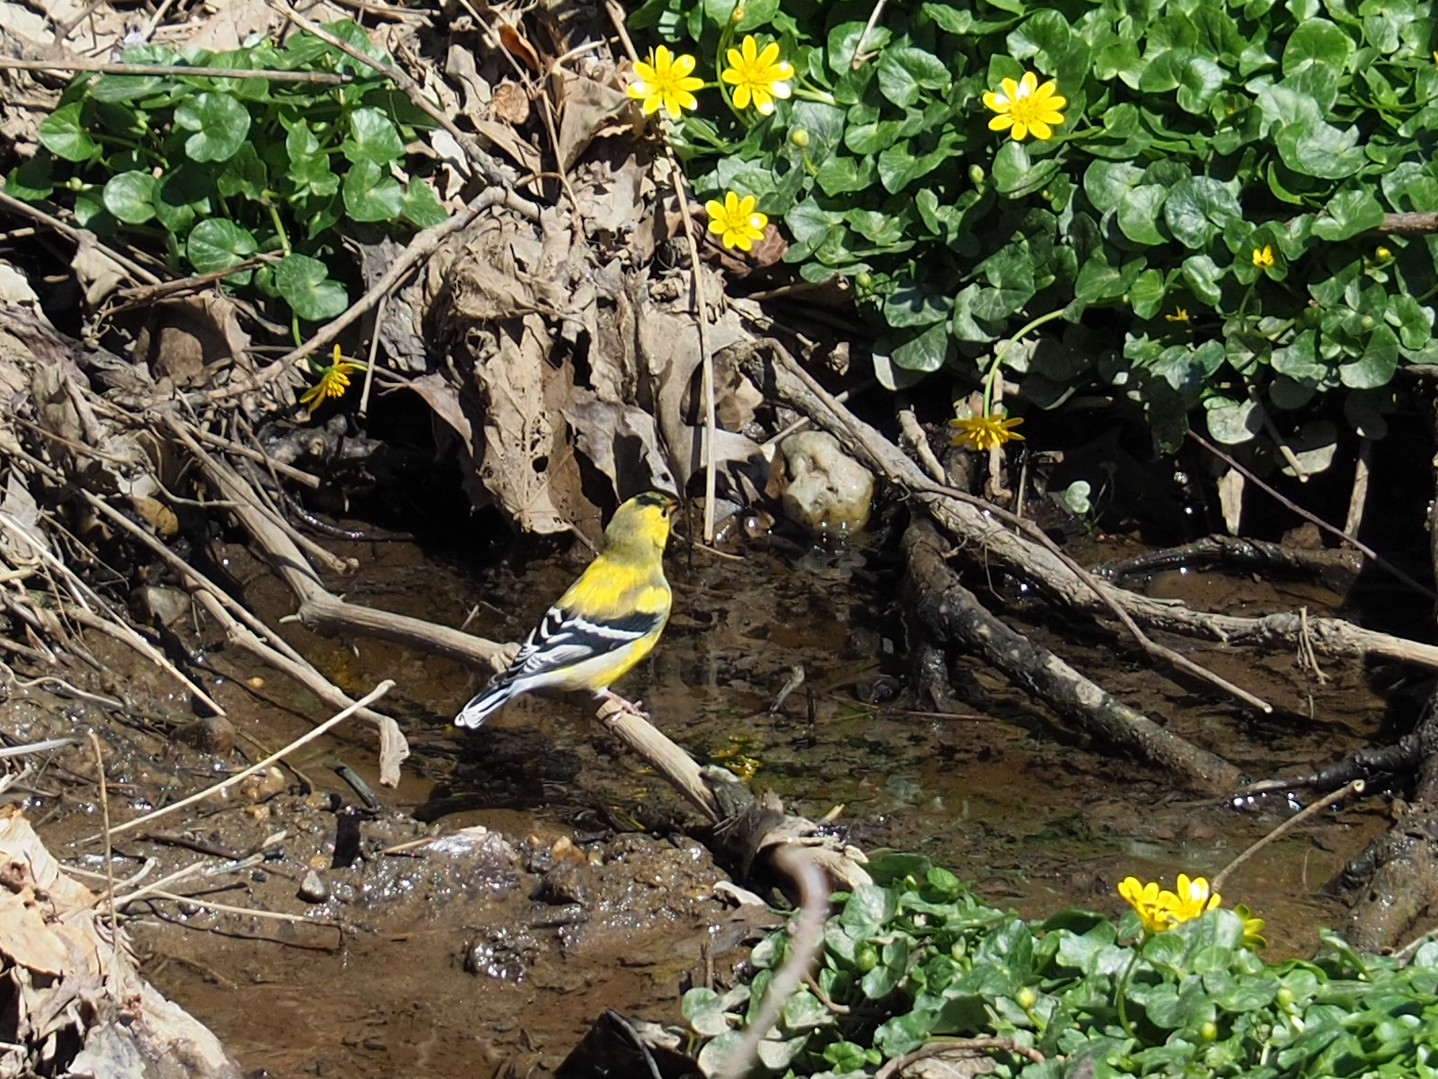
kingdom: Animalia
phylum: Chordata
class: Aves
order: Passeriformes
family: Fringillidae
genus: Spinus
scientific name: Spinus tristis
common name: American goldfinch
